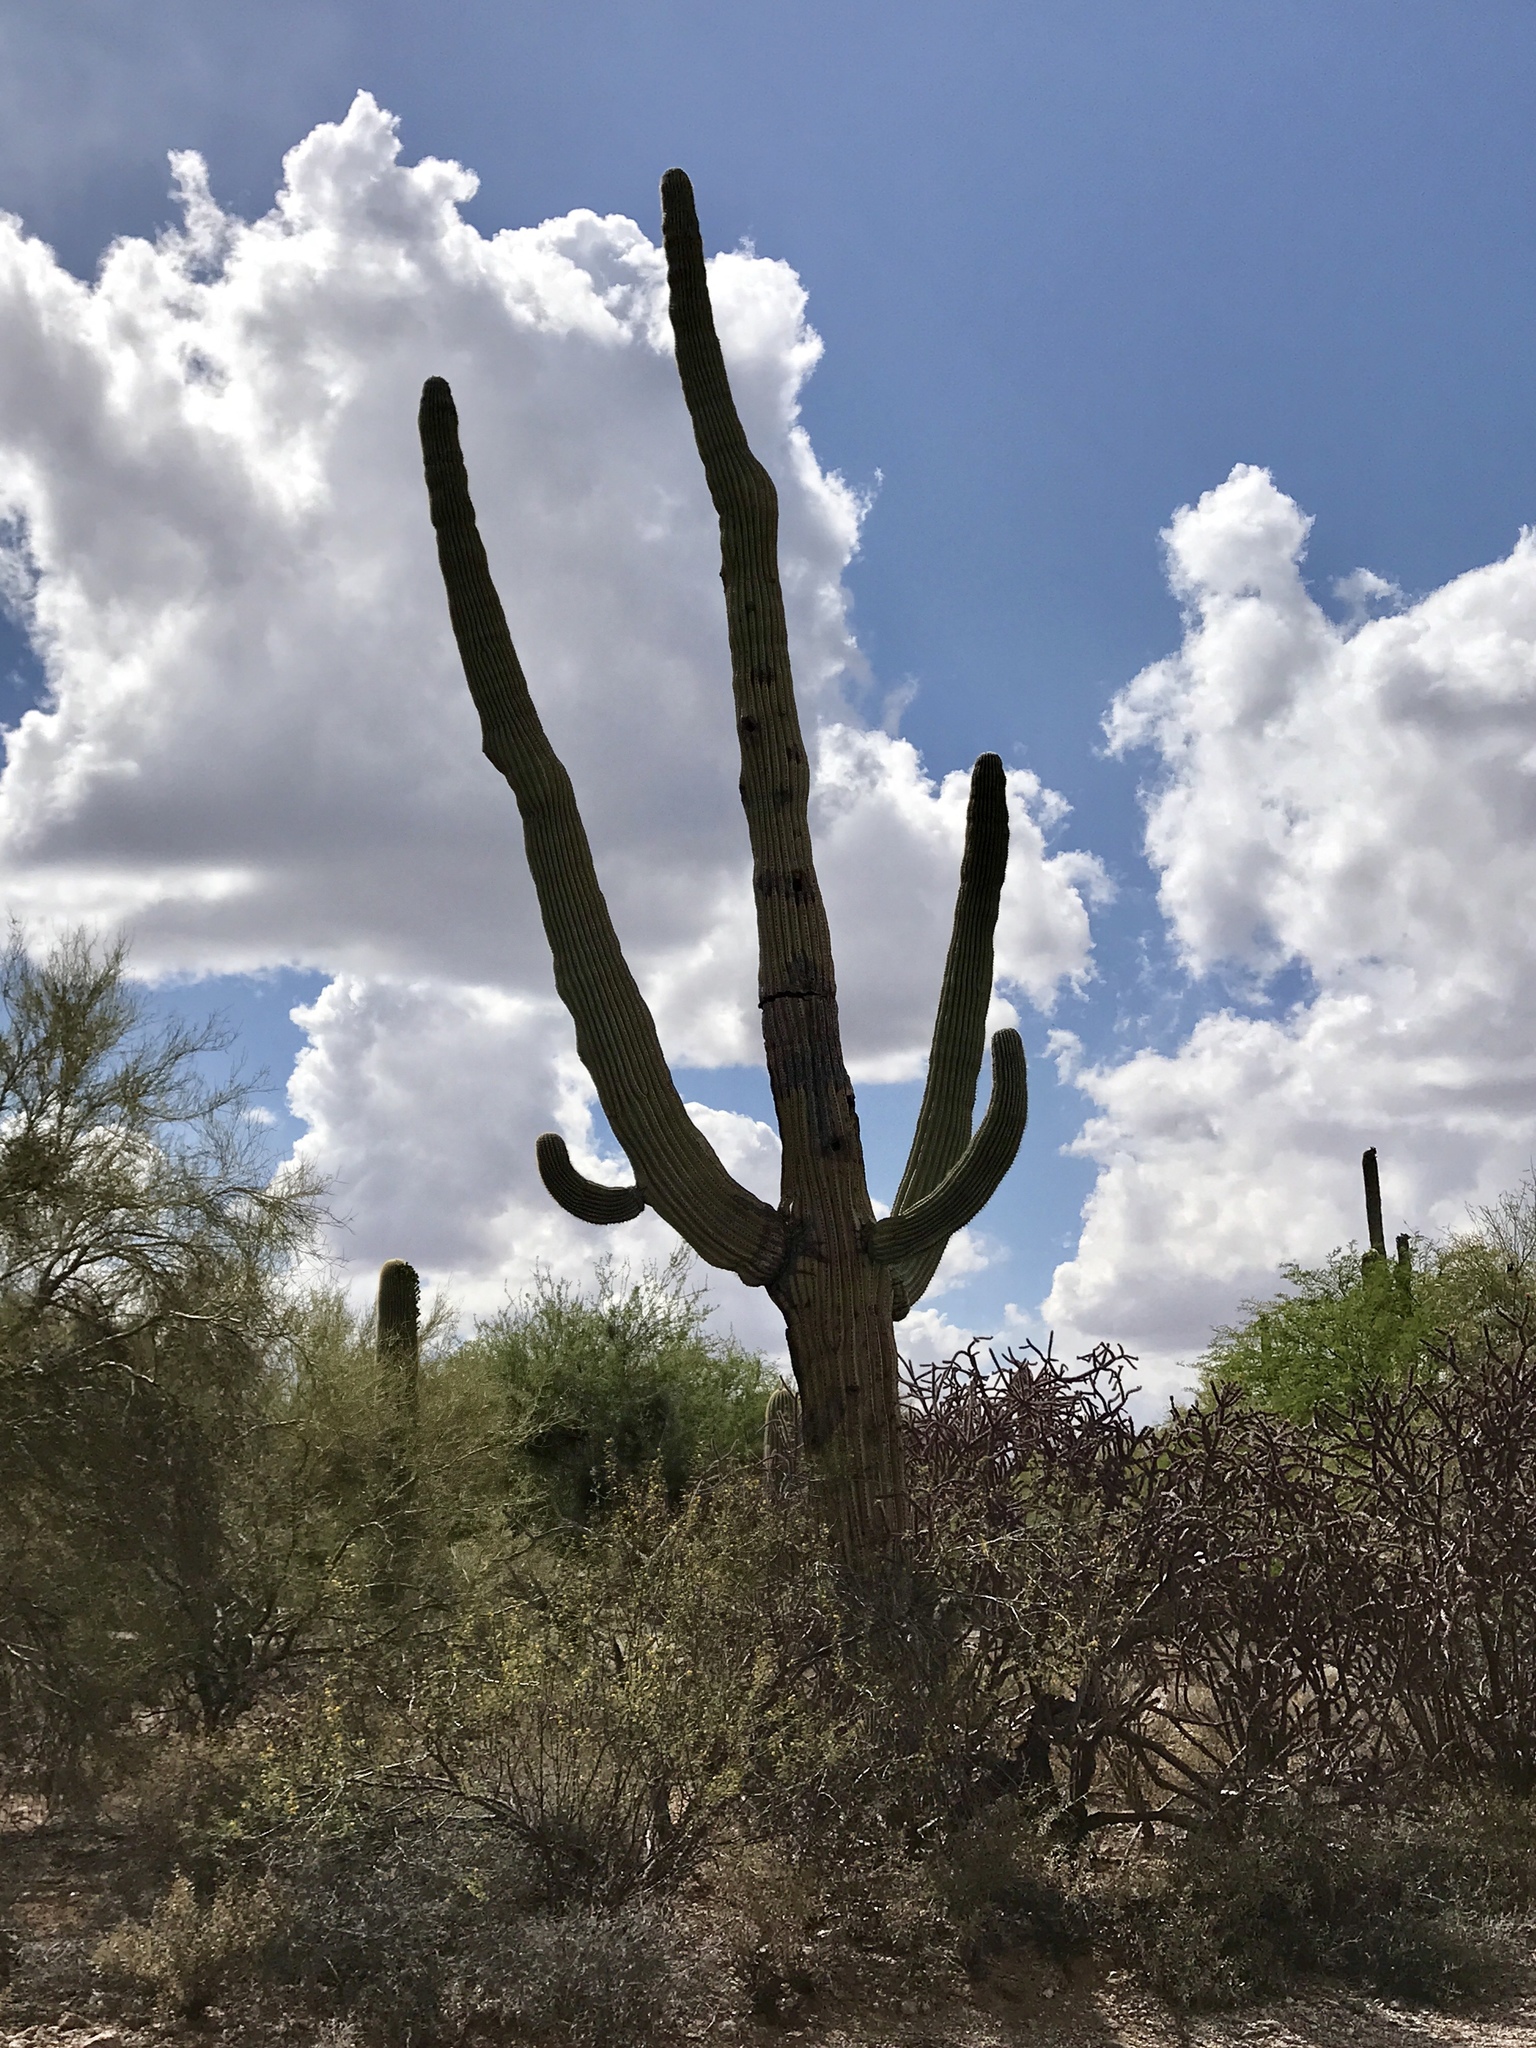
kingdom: Plantae
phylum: Tracheophyta
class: Magnoliopsida
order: Caryophyllales
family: Cactaceae
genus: Carnegiea
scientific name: Carnegiea gigantea
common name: Saguaro
